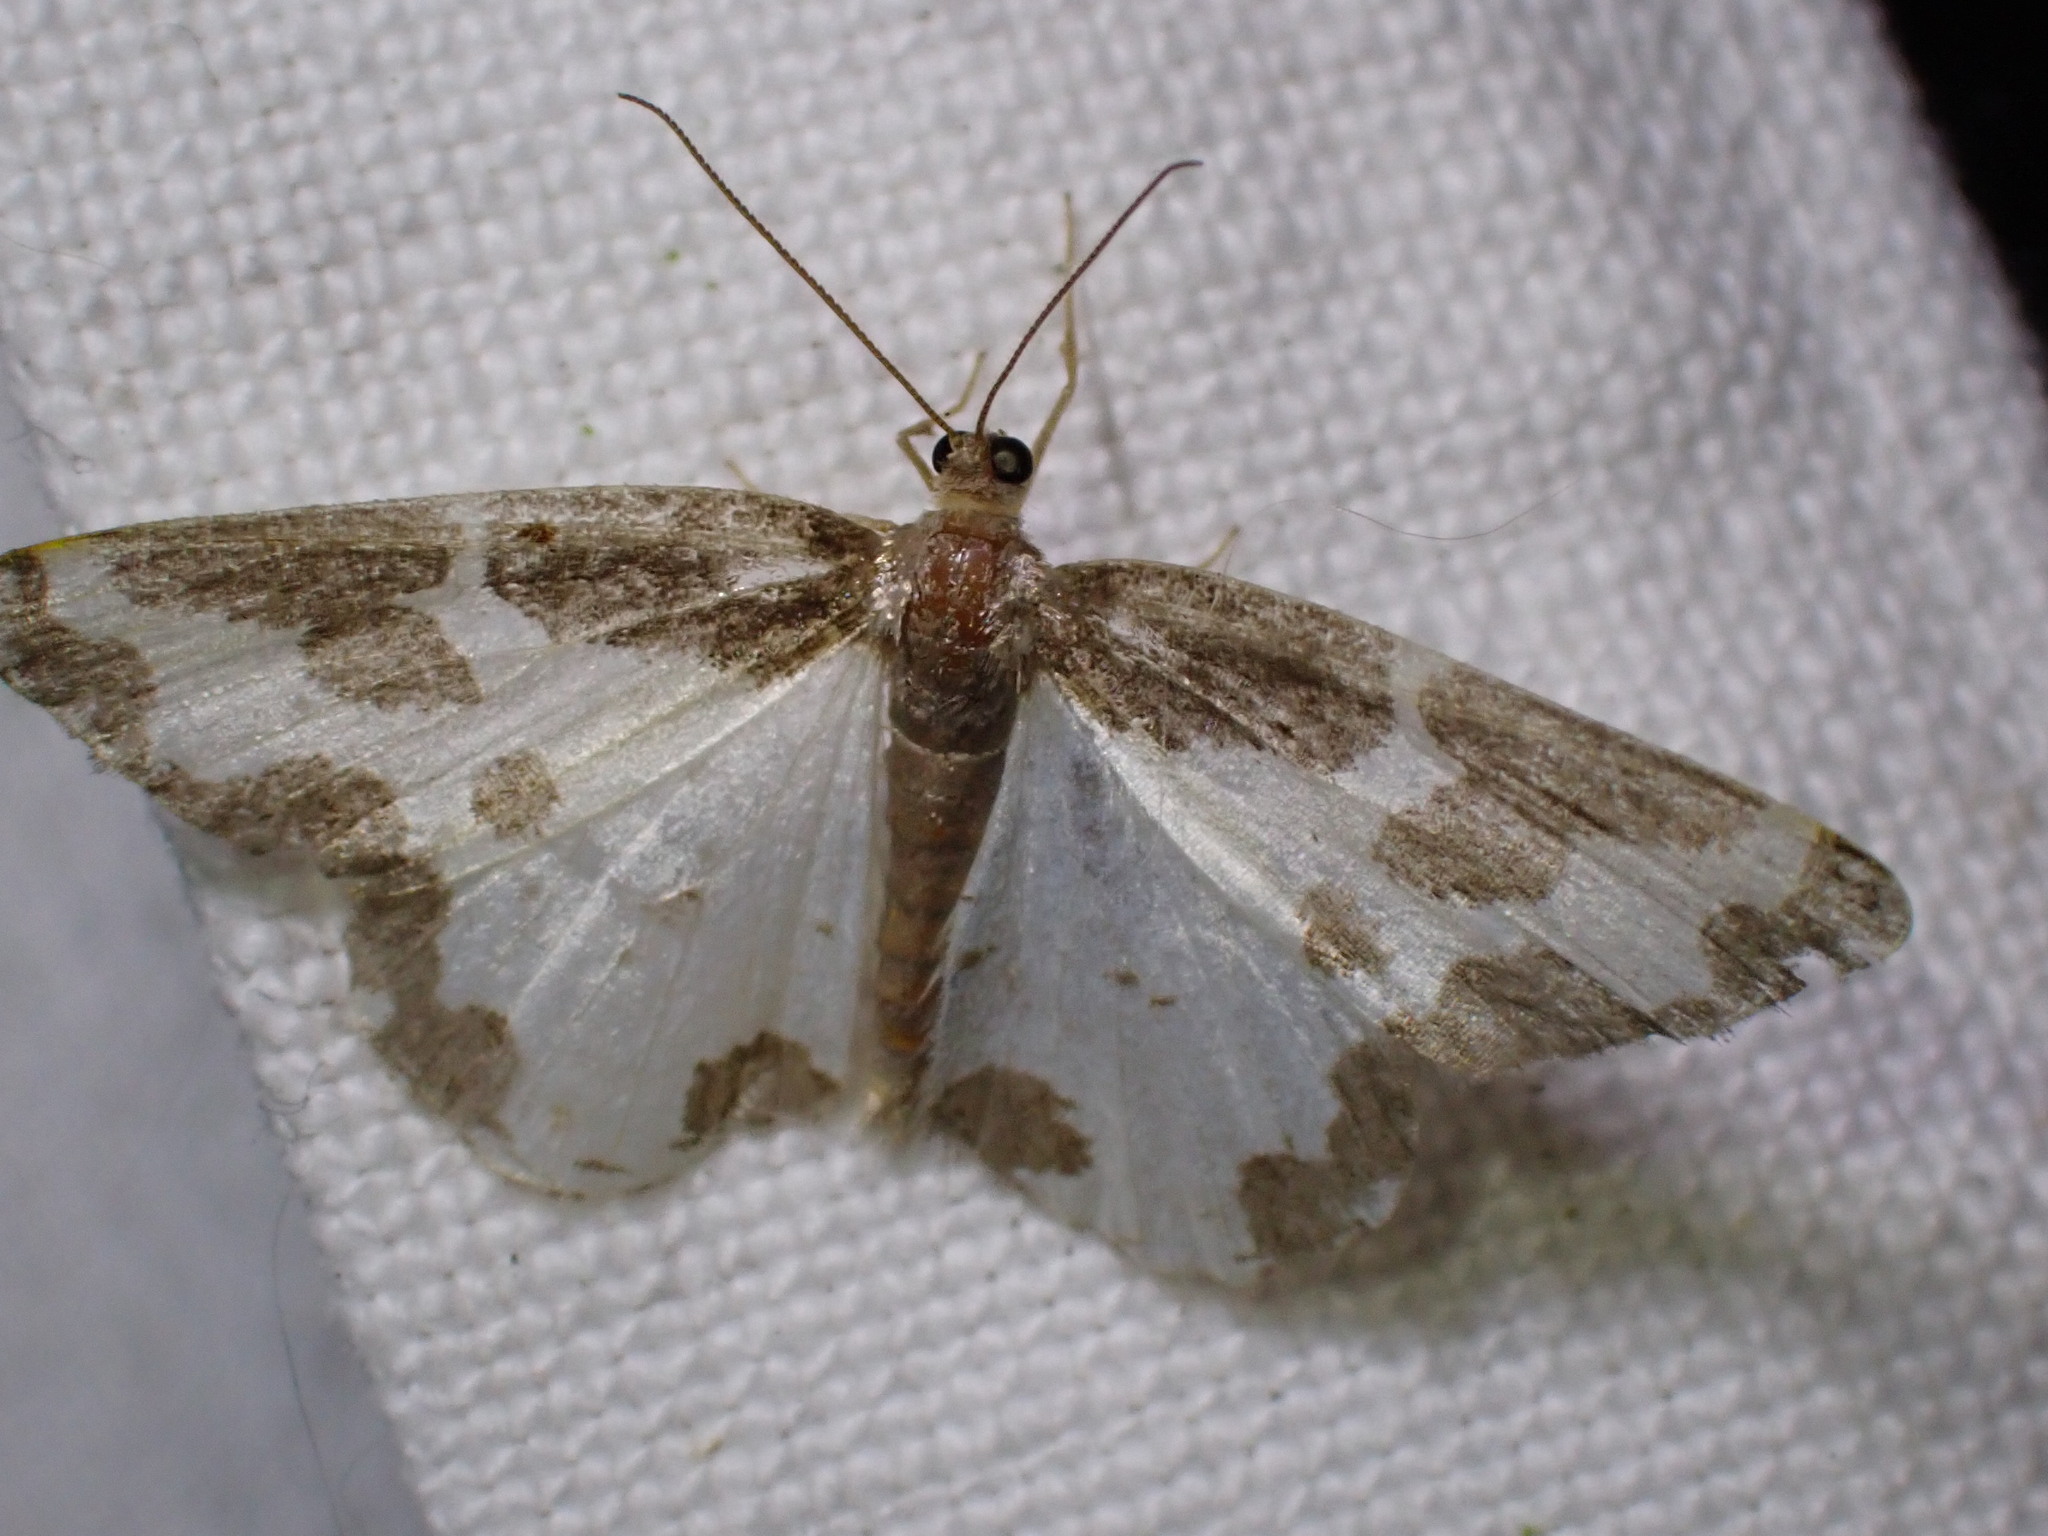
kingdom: Animalia
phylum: Arthropoda
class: Insecta
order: Lepidoptera
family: Geometridae
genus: Lomaspilis
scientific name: Lomaspilis marginata
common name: Clouded border
